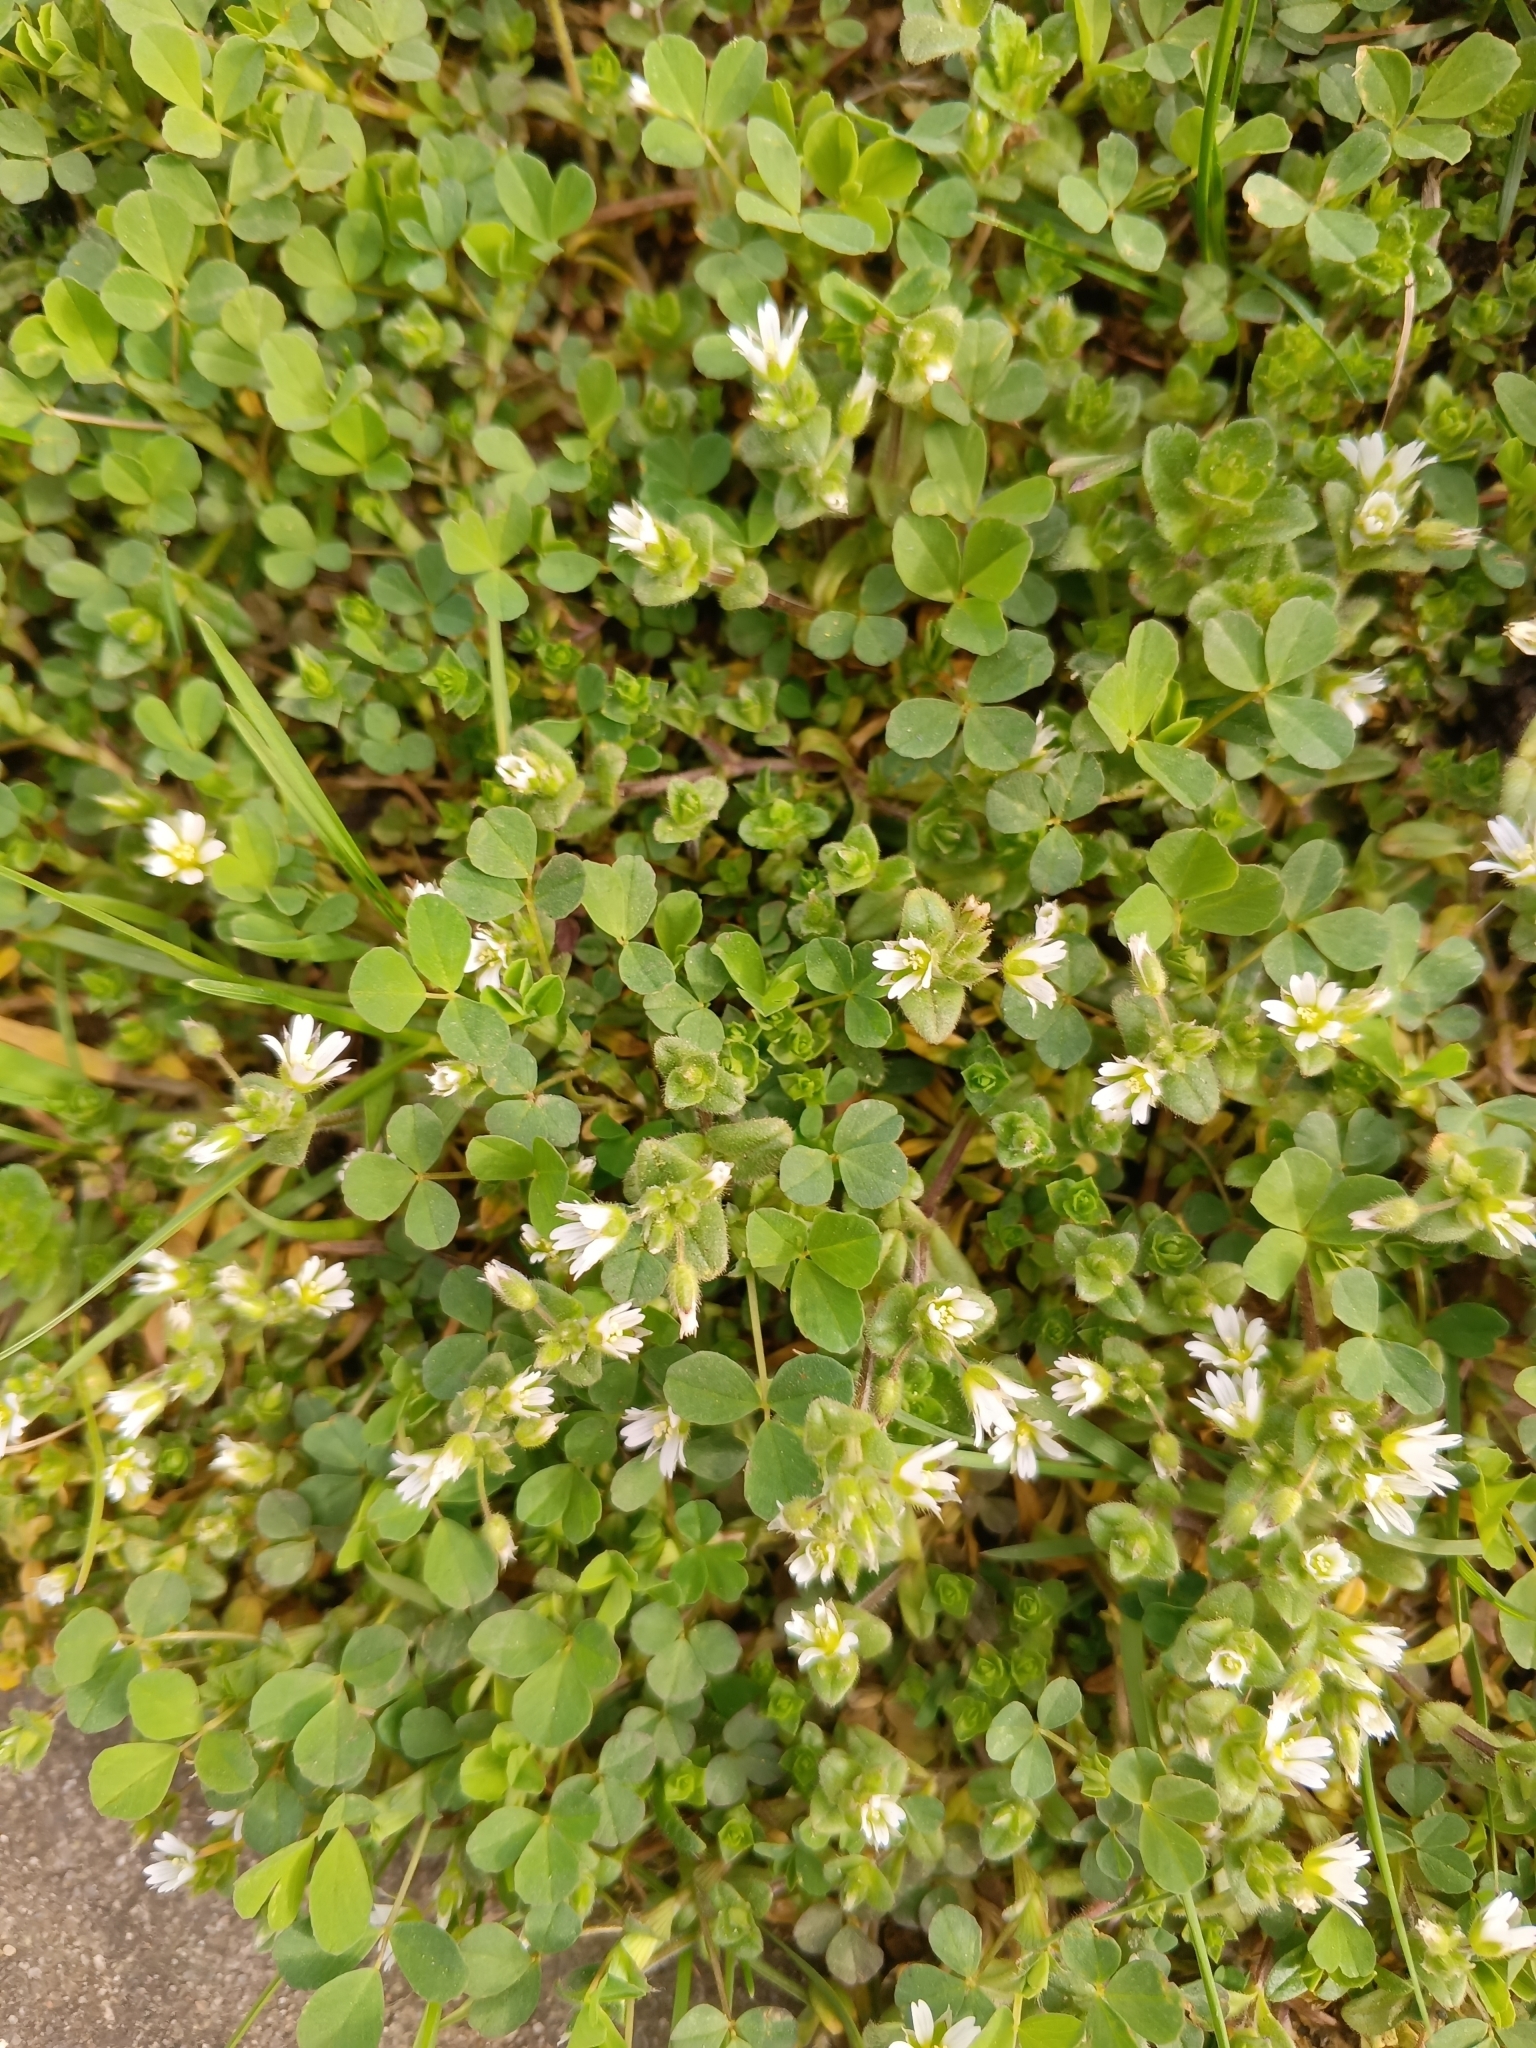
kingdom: Plantae
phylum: Tracheophyta
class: Magnoliopsida
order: Caryophyllales
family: Caryophyllaceae
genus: Cerastium
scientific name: Cerastium semidecandrum
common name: Little mouse-ear
